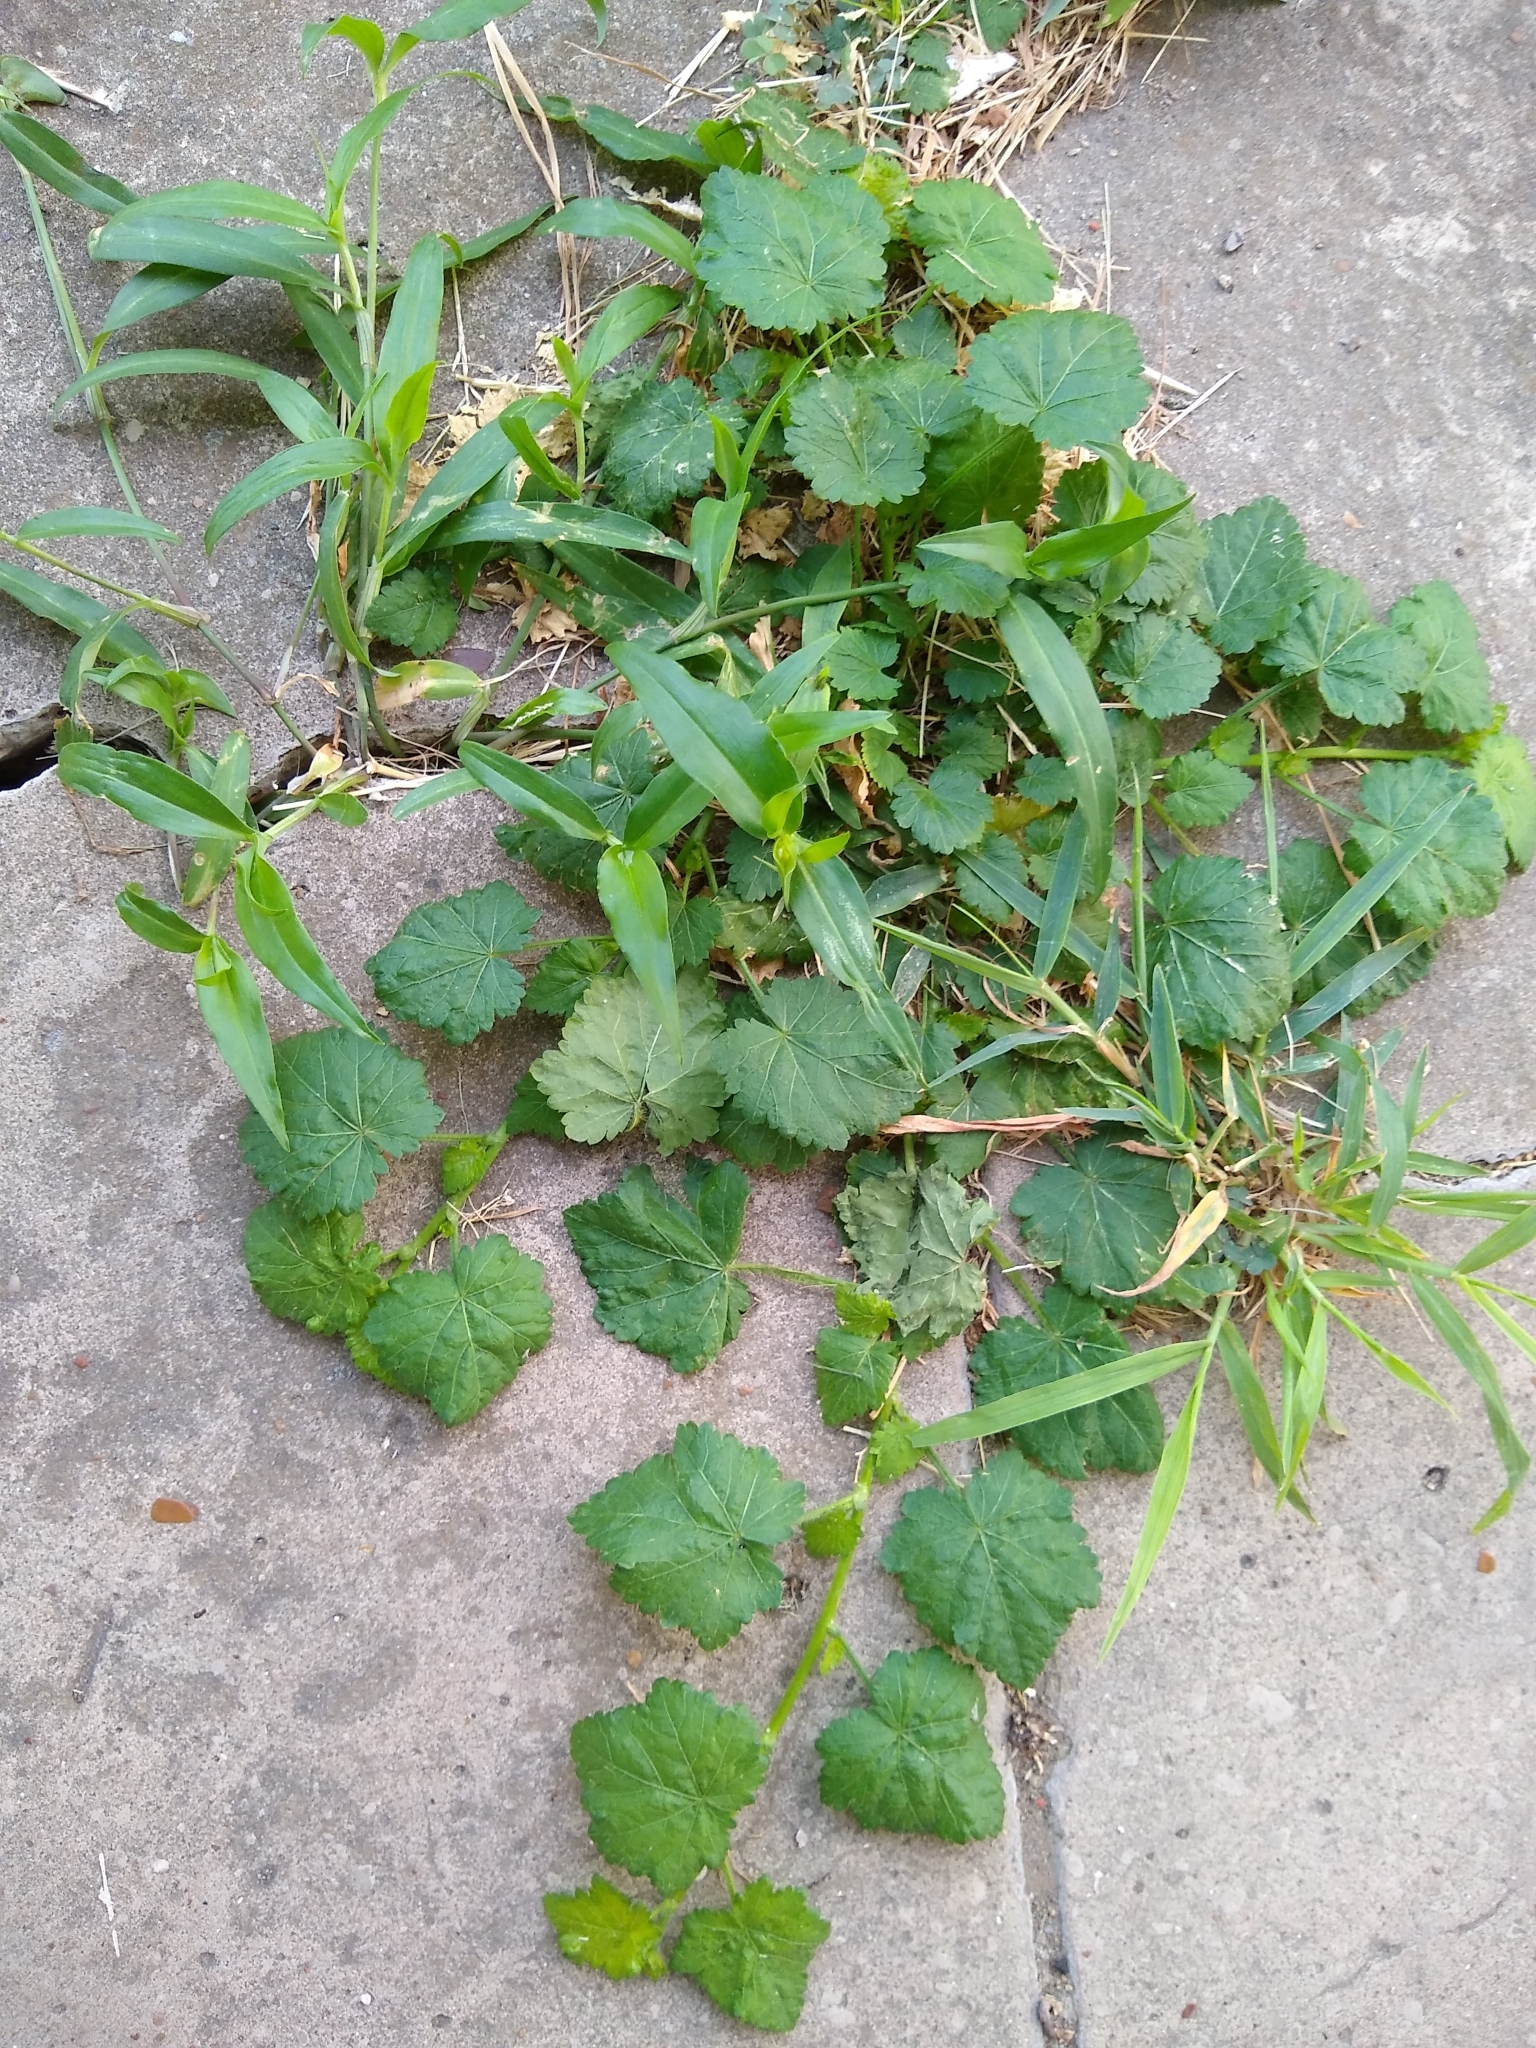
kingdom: Plantae
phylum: Tracheophyta
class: Magnoliopsida
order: Malvales
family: Malvaceae
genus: Modiola
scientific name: Modiola caroliniana
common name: Carolina bristlemallow
